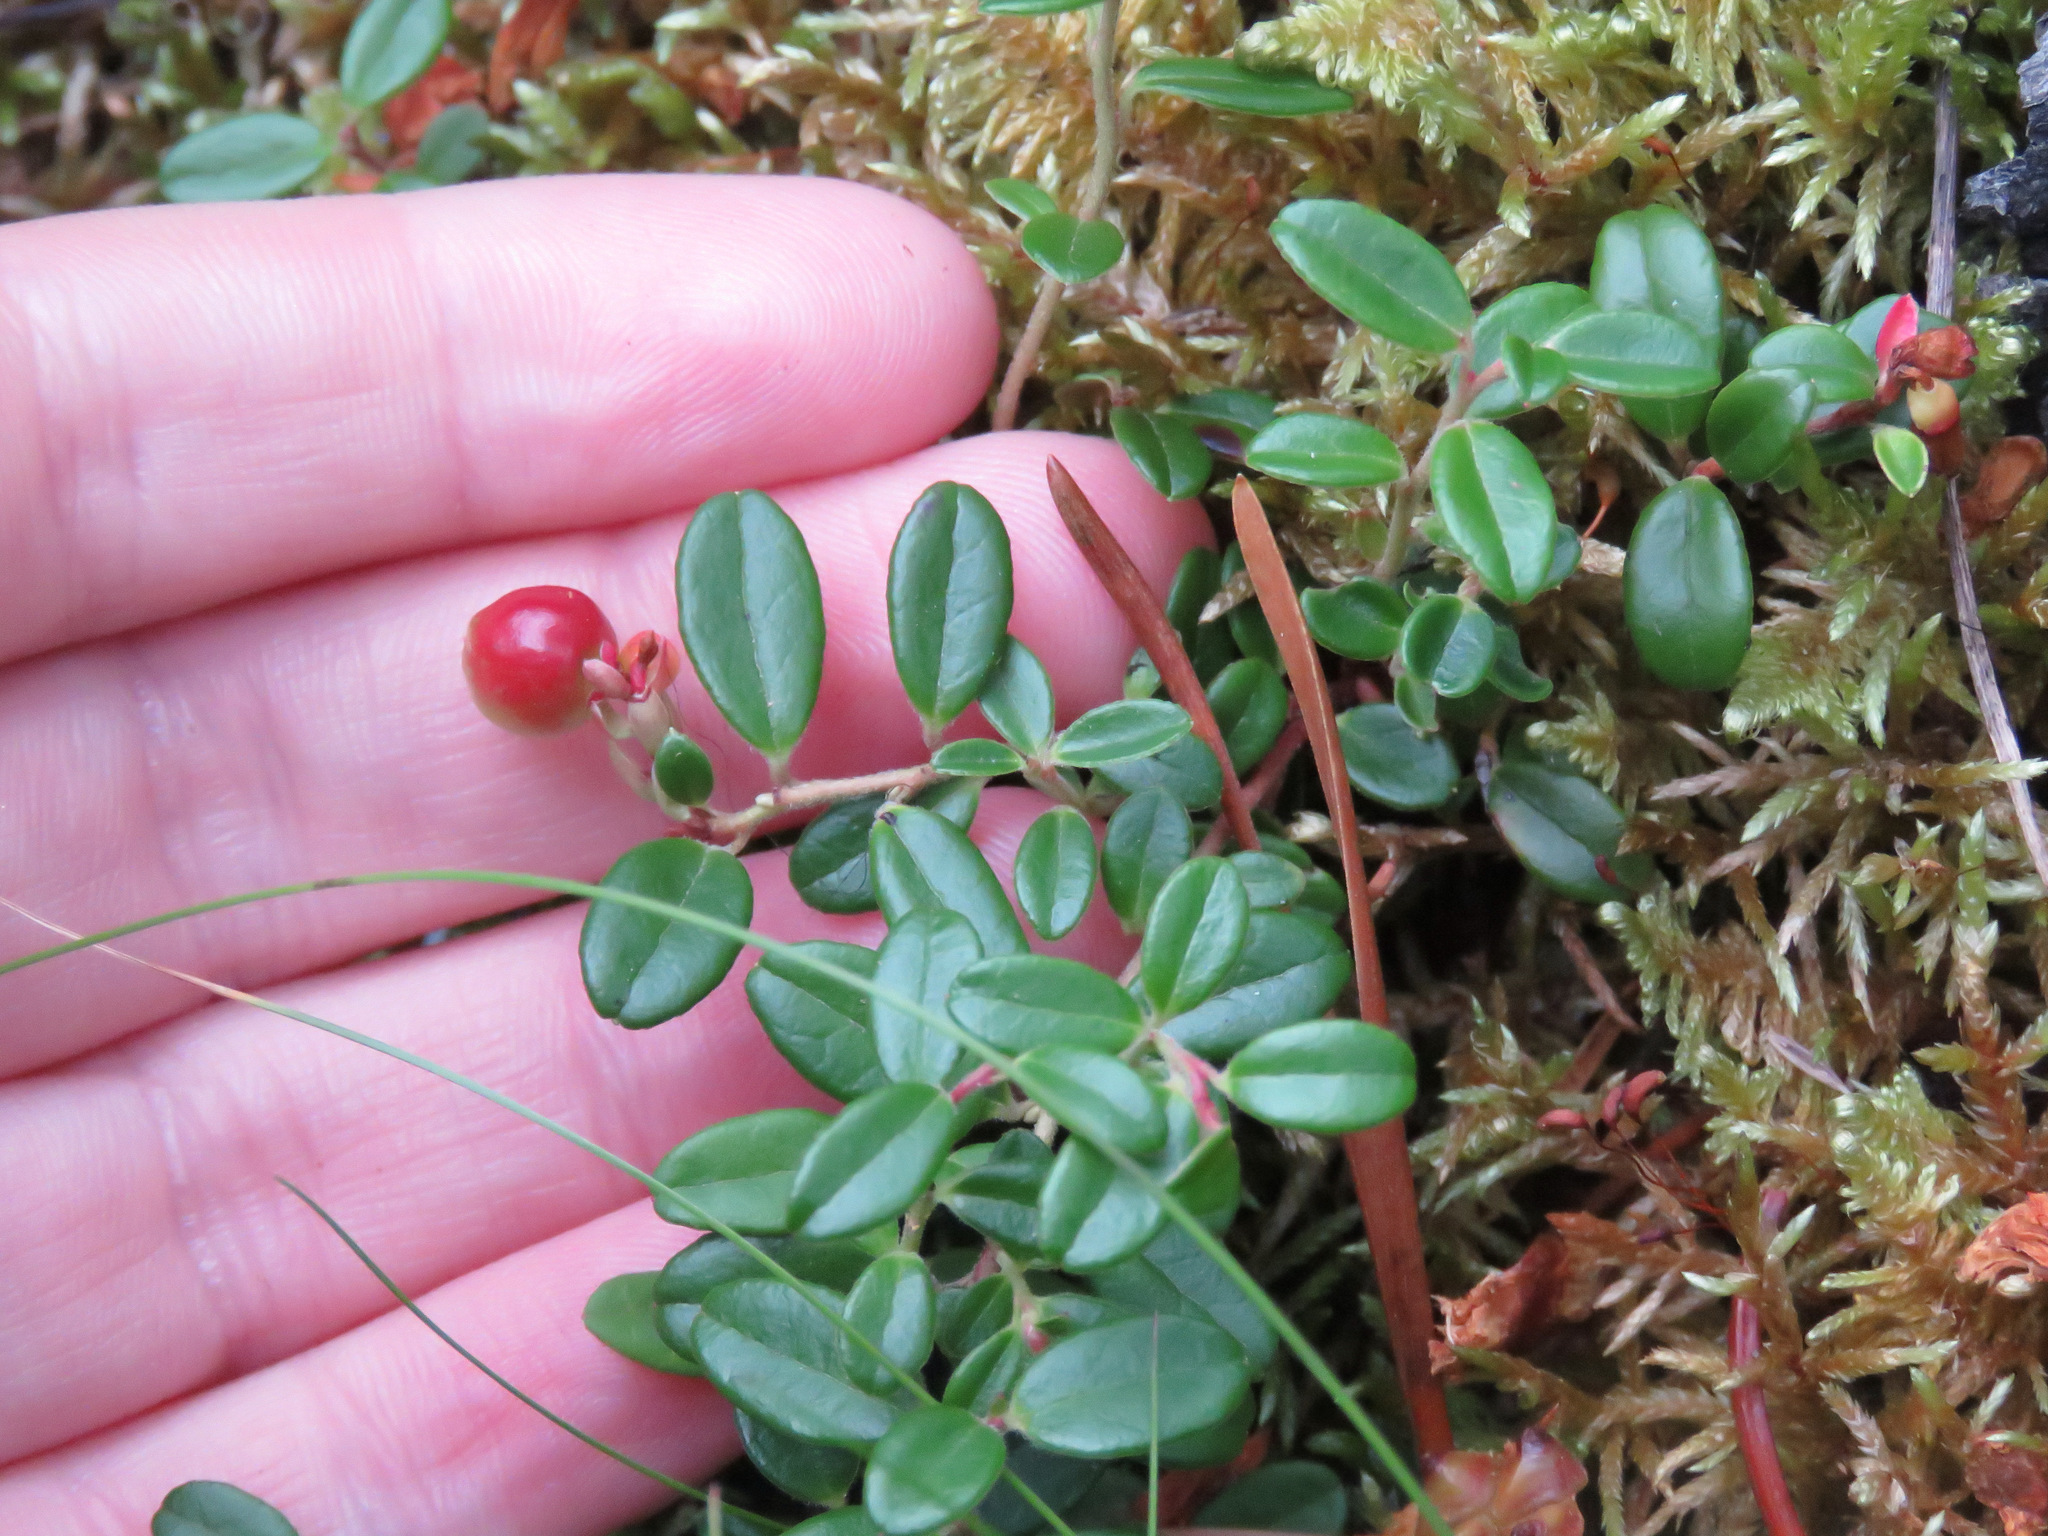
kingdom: Plantae
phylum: Tracheophyta
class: Magnoliopsida
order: Ericales
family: Ericaceae
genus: Vaccinium
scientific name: Vaccinium vitis-idaea
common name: Cowberry
